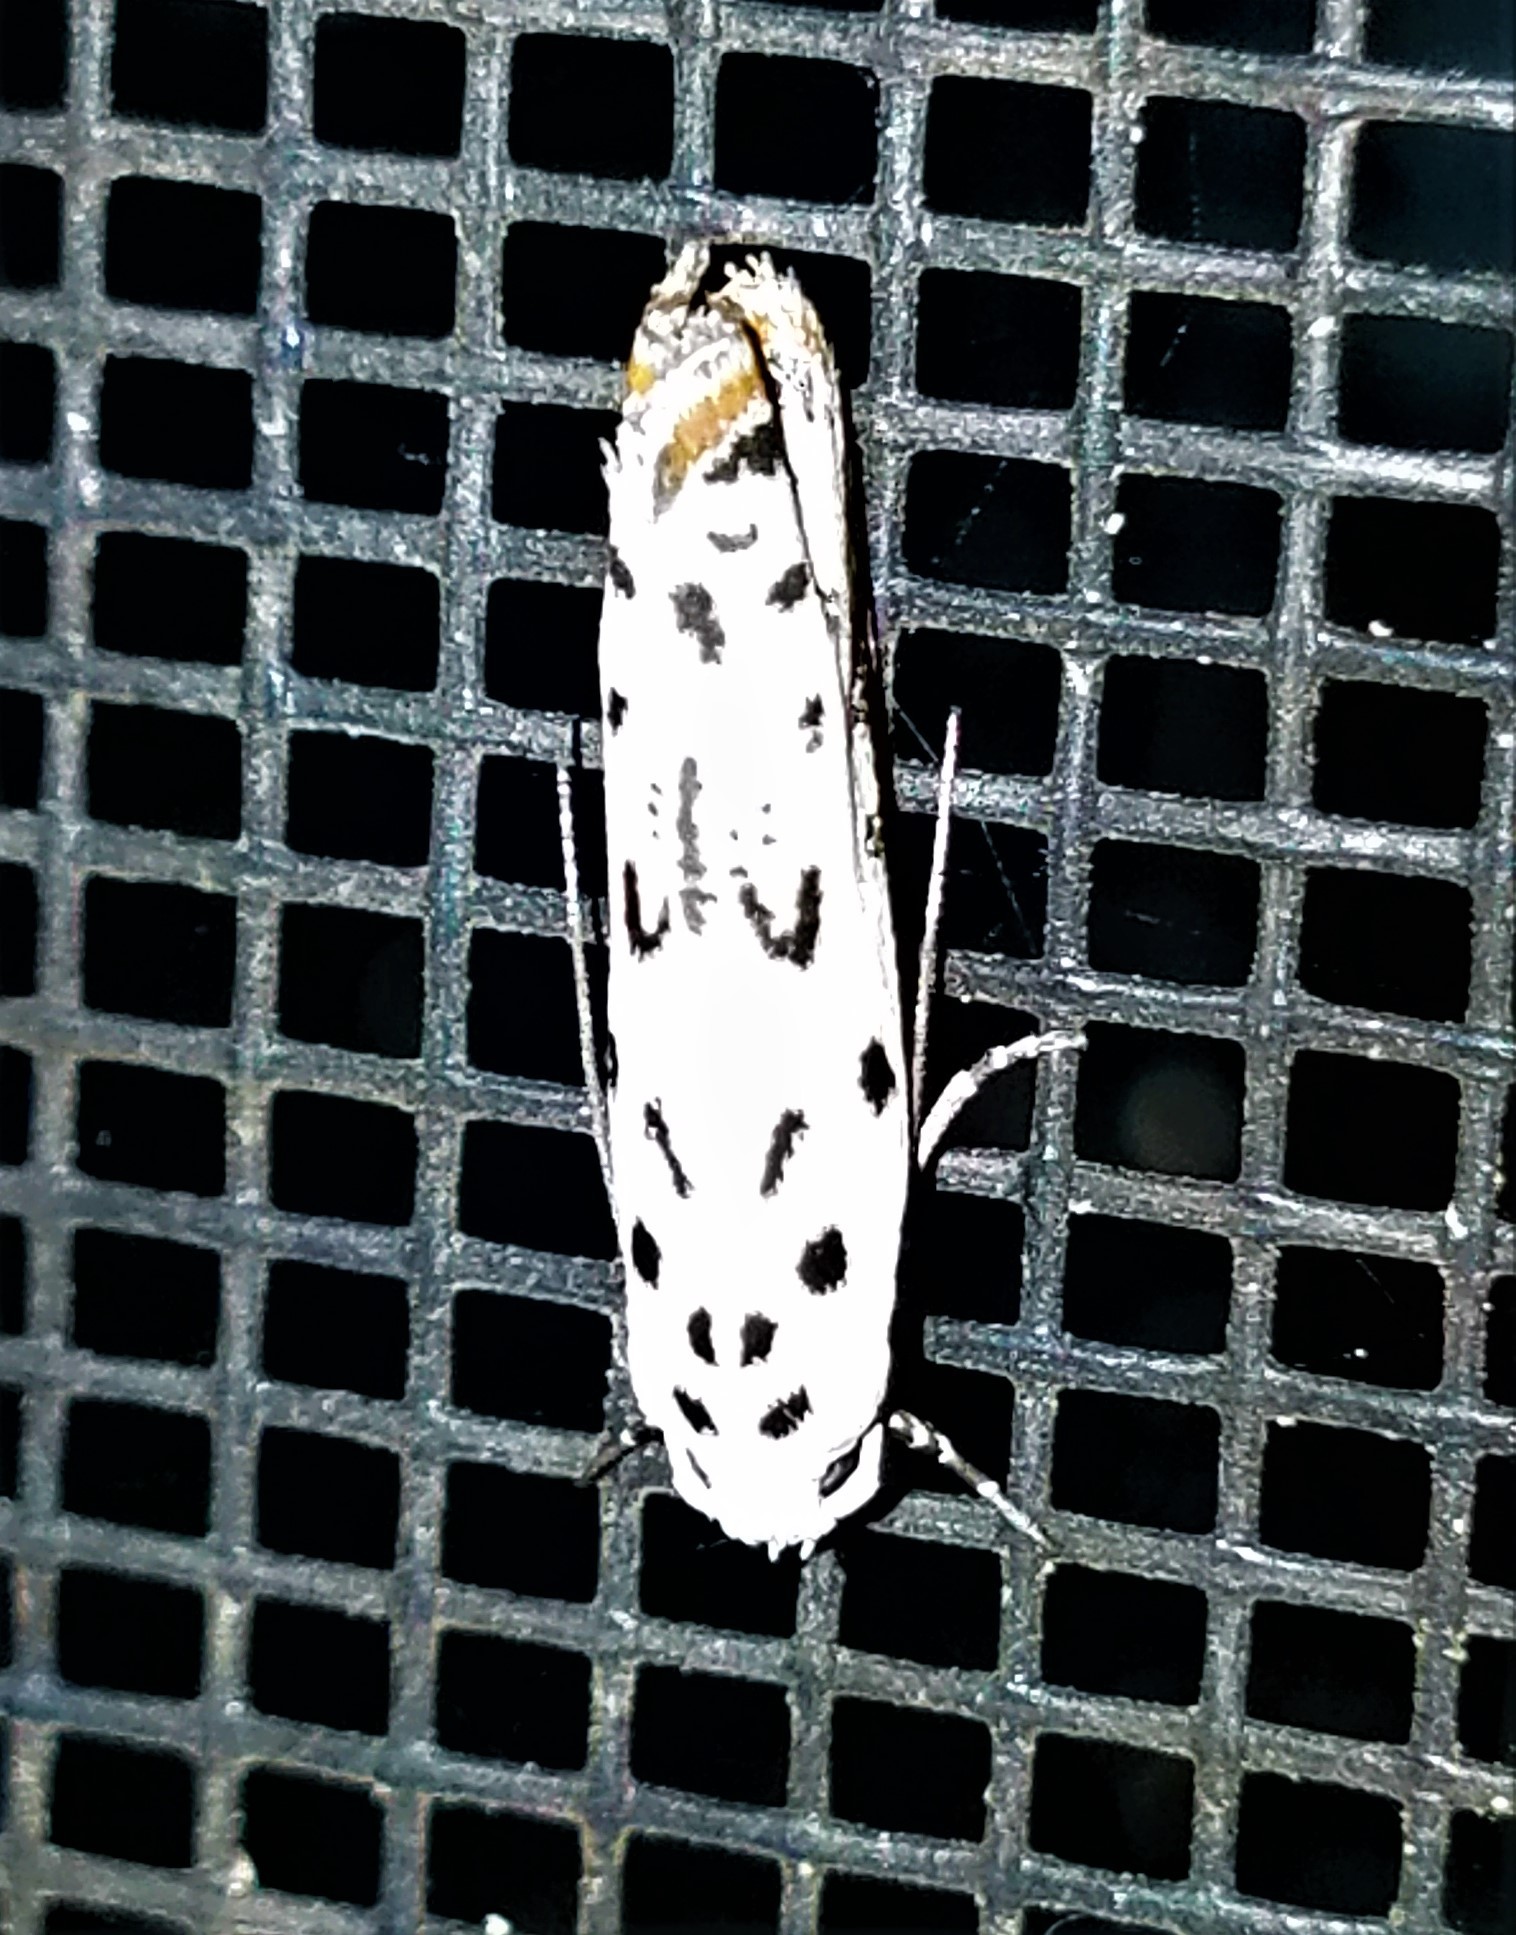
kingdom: Animalia
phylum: Arthropoda
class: Insecta
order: Lepidoptera
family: Ethmiidae
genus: Ethmia
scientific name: Ethmia bittenella
